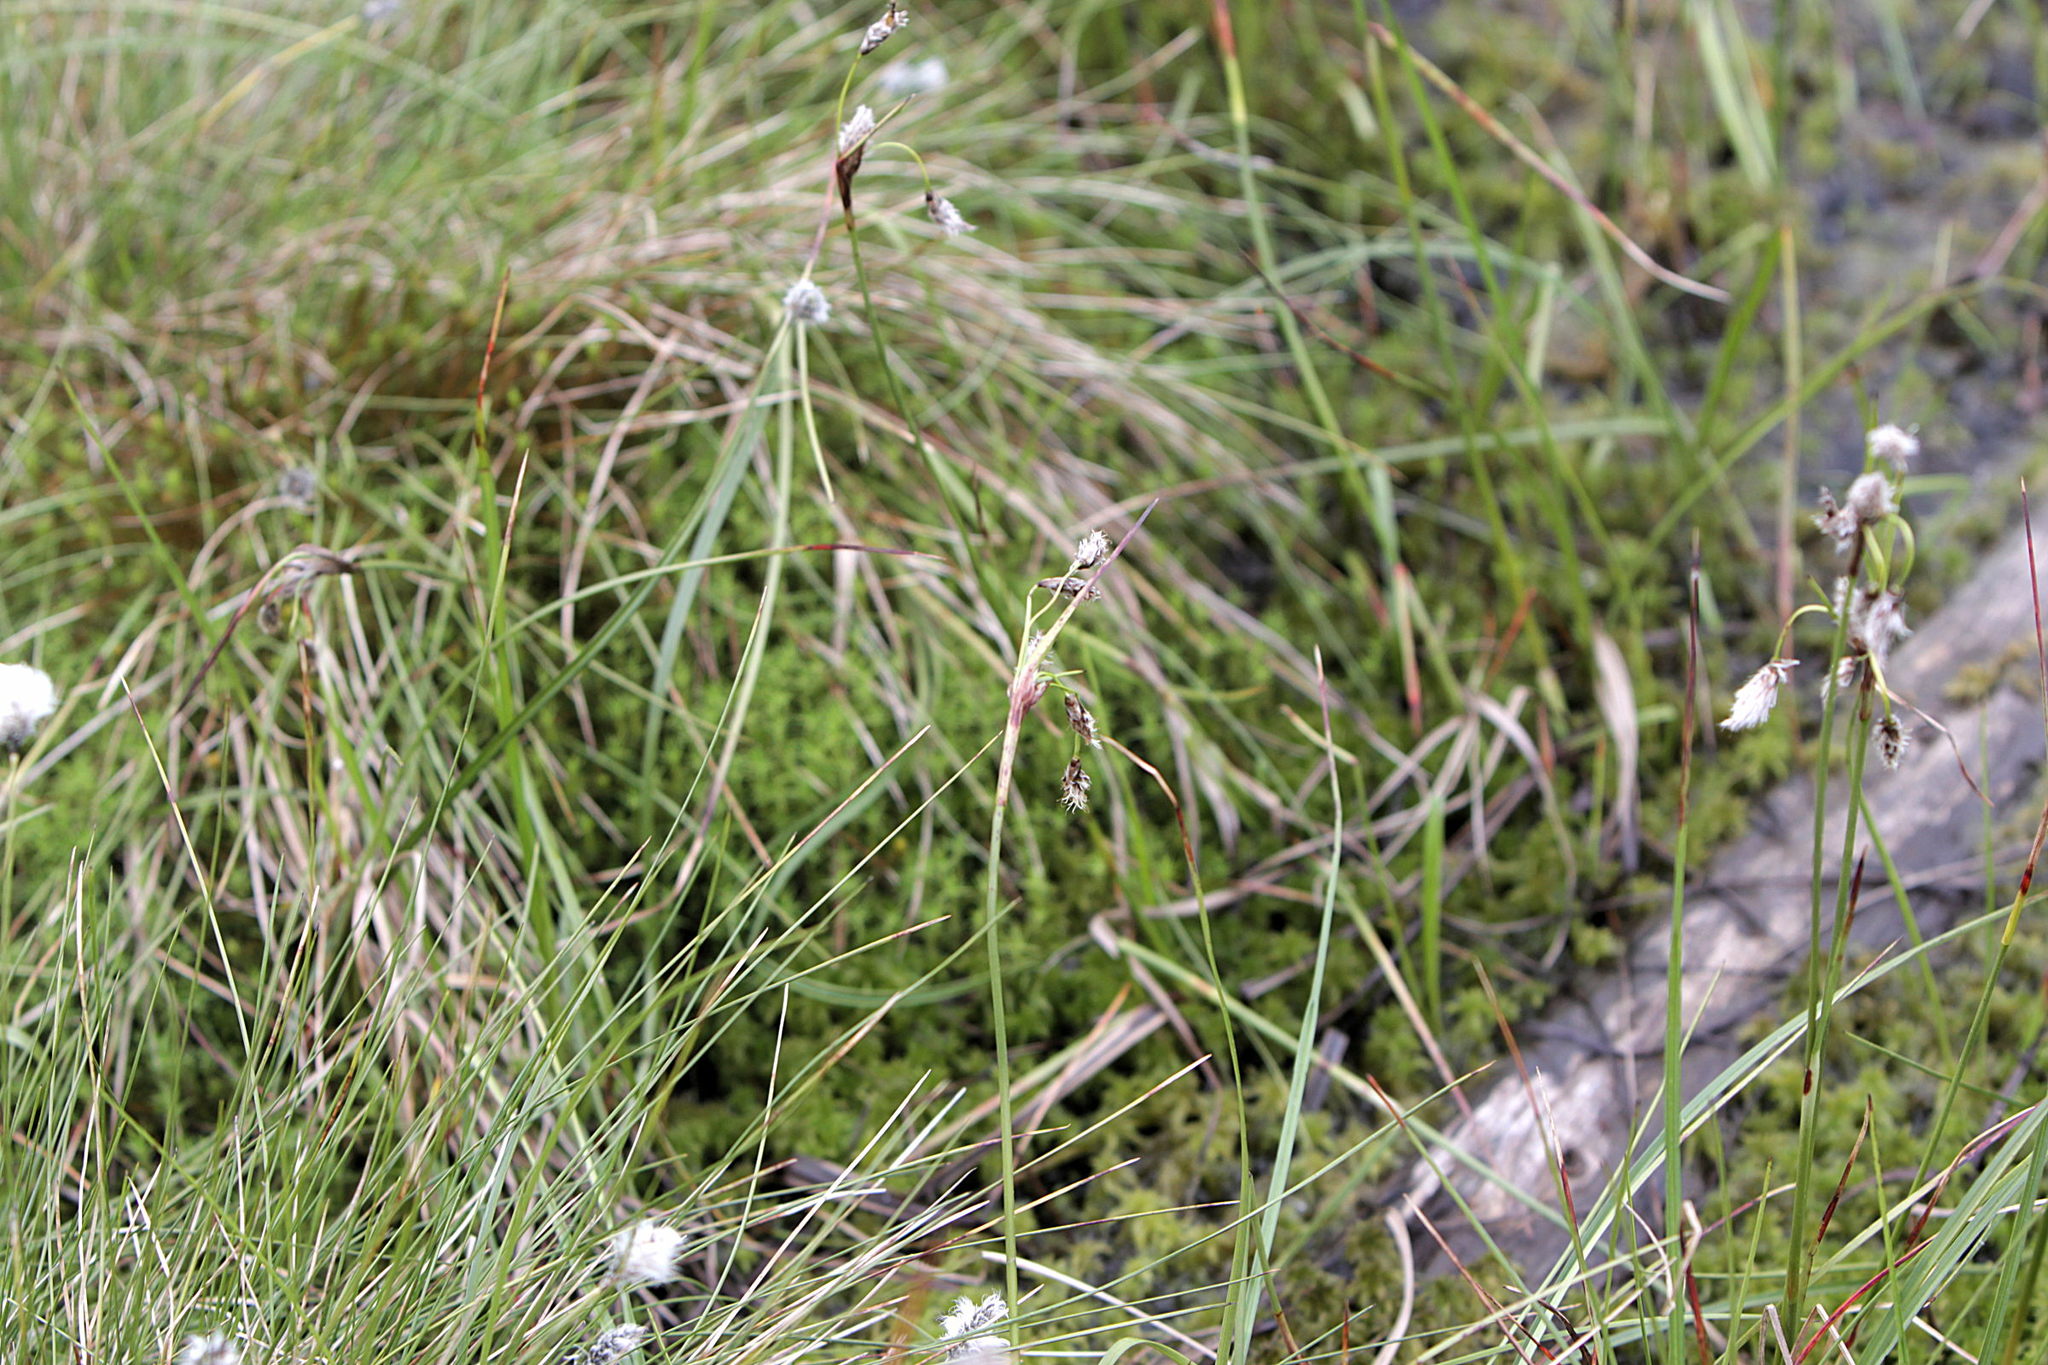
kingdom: Plantae
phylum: Tracheophyta
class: Liliopsida
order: Poales
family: Cyperaceae
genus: Eriophorum
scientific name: Eriophorum angustifolium
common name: Common cottongrass
